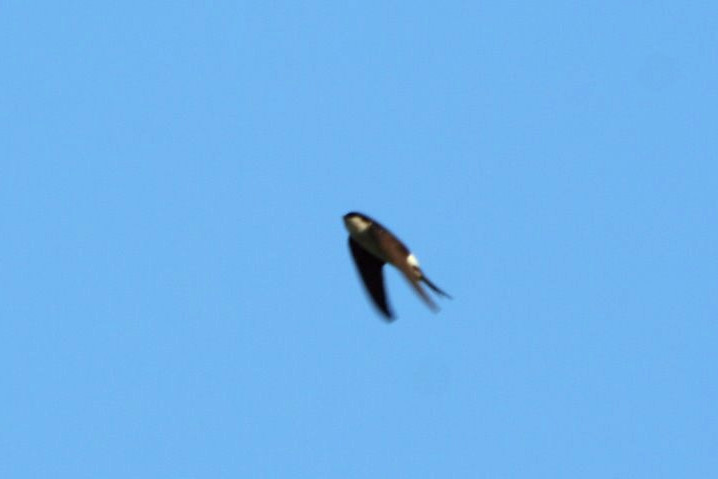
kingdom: Animalia
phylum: Chordata
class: Aves
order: Passeriformes
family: Hirundinidae
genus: Delichon
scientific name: Delichon urbicum
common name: Common house martin
